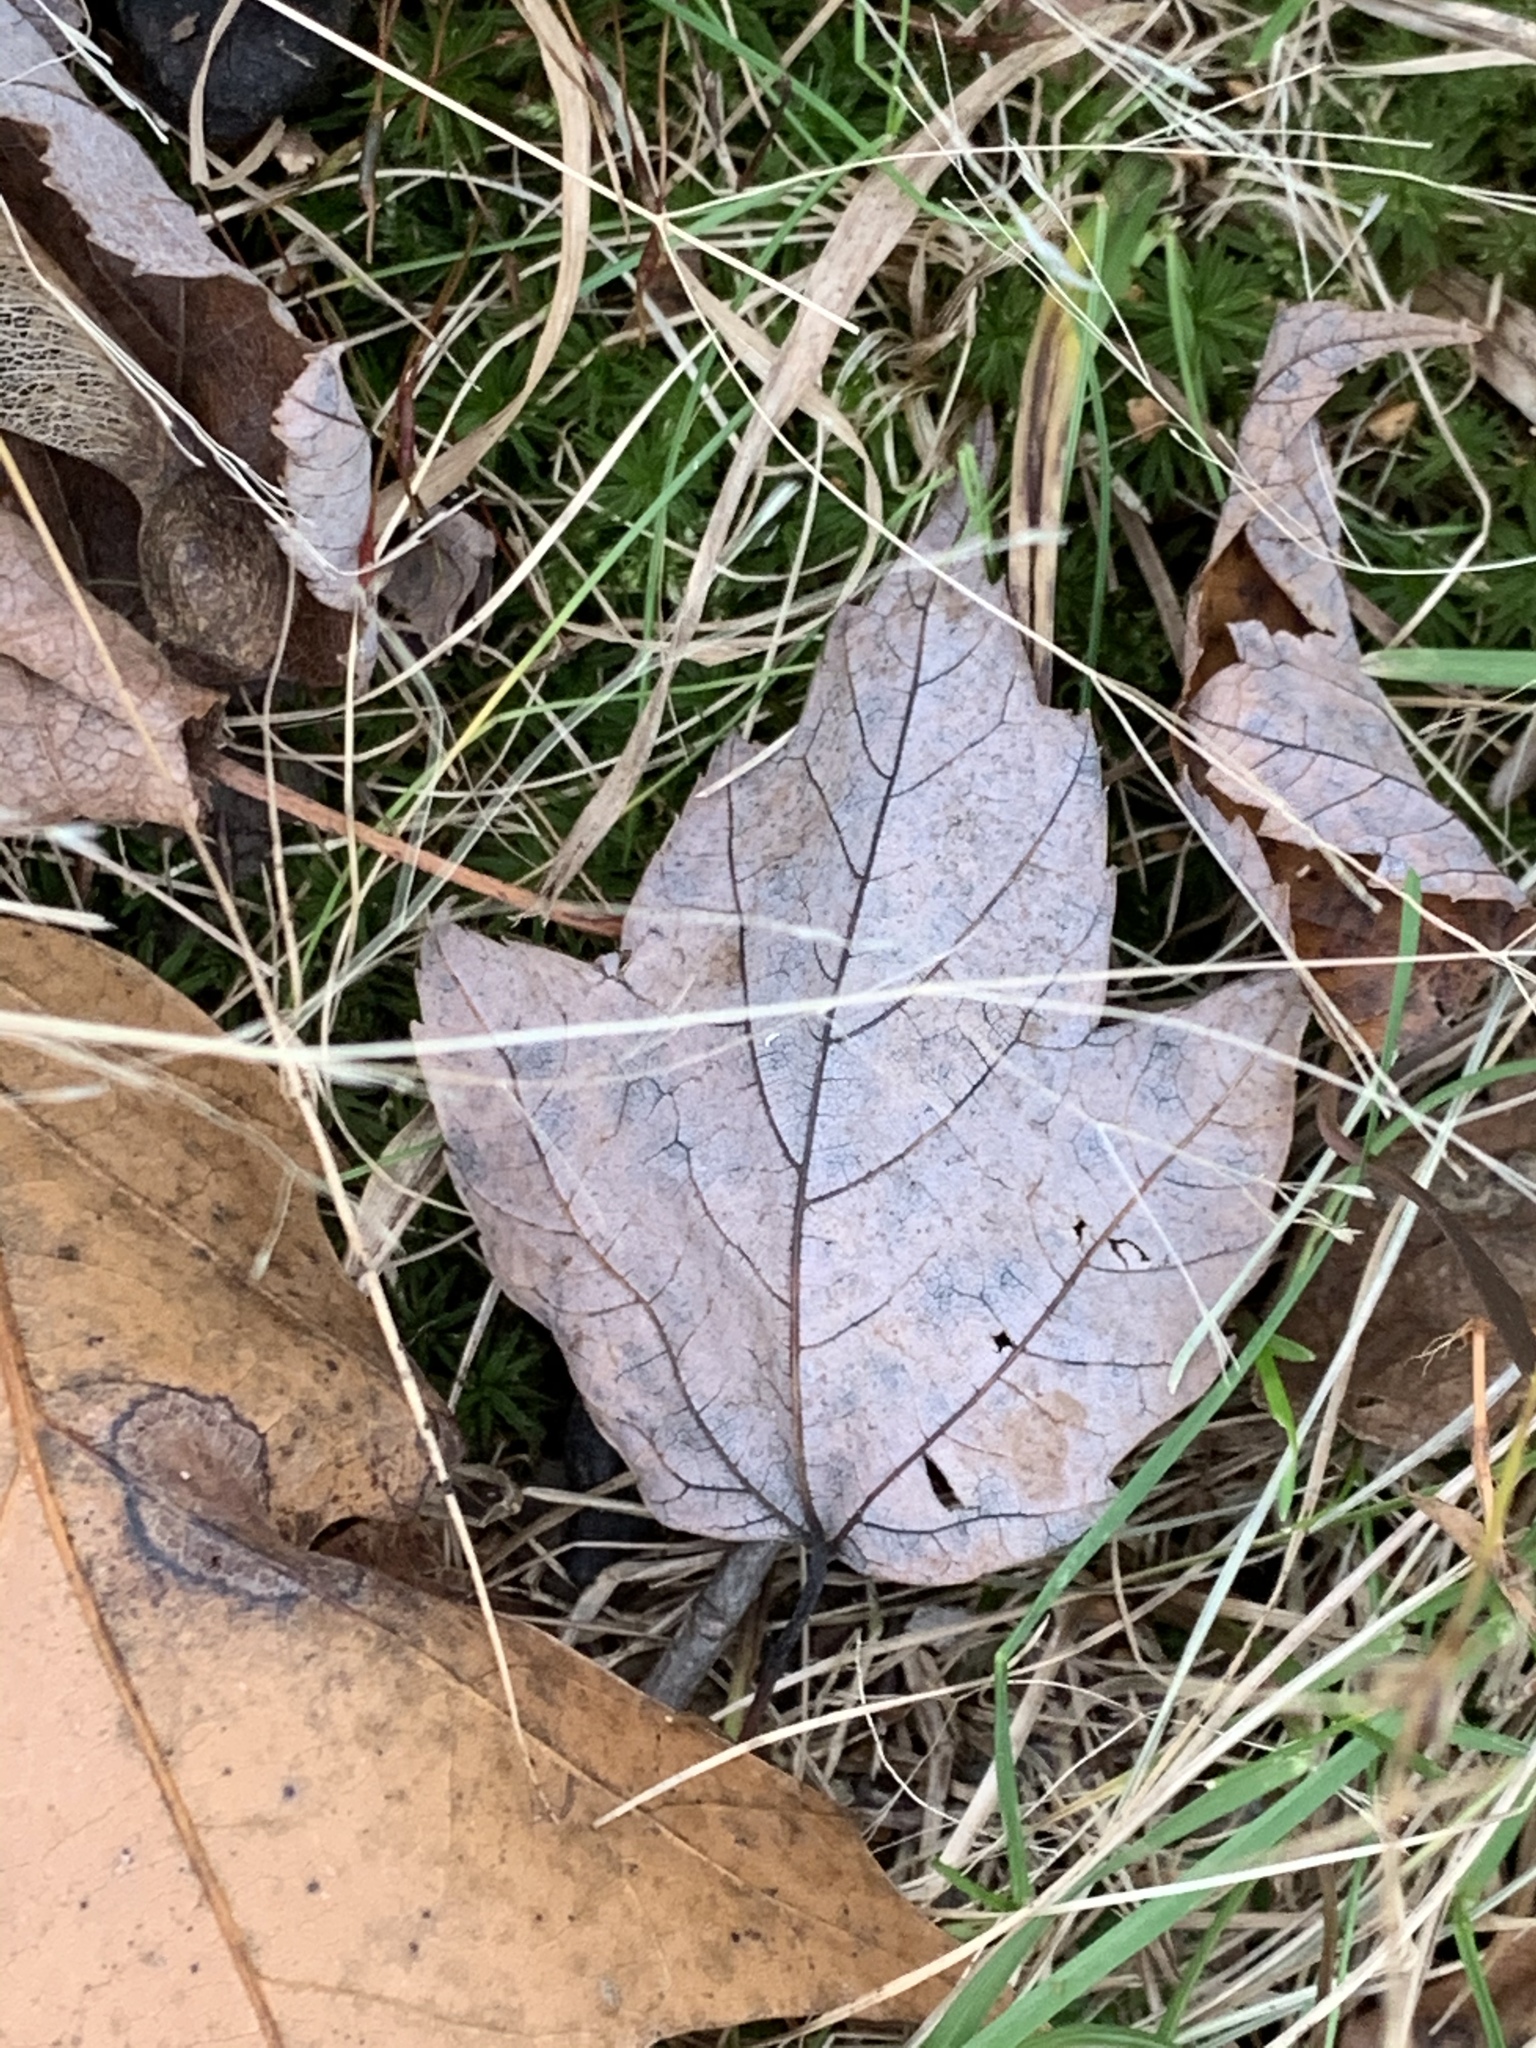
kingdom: Plantae
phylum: Tracheophyta
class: Magnoliopsida
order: Sapindales
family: Sapindaceae
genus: Acer
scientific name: Acer rubrum
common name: Red maple
